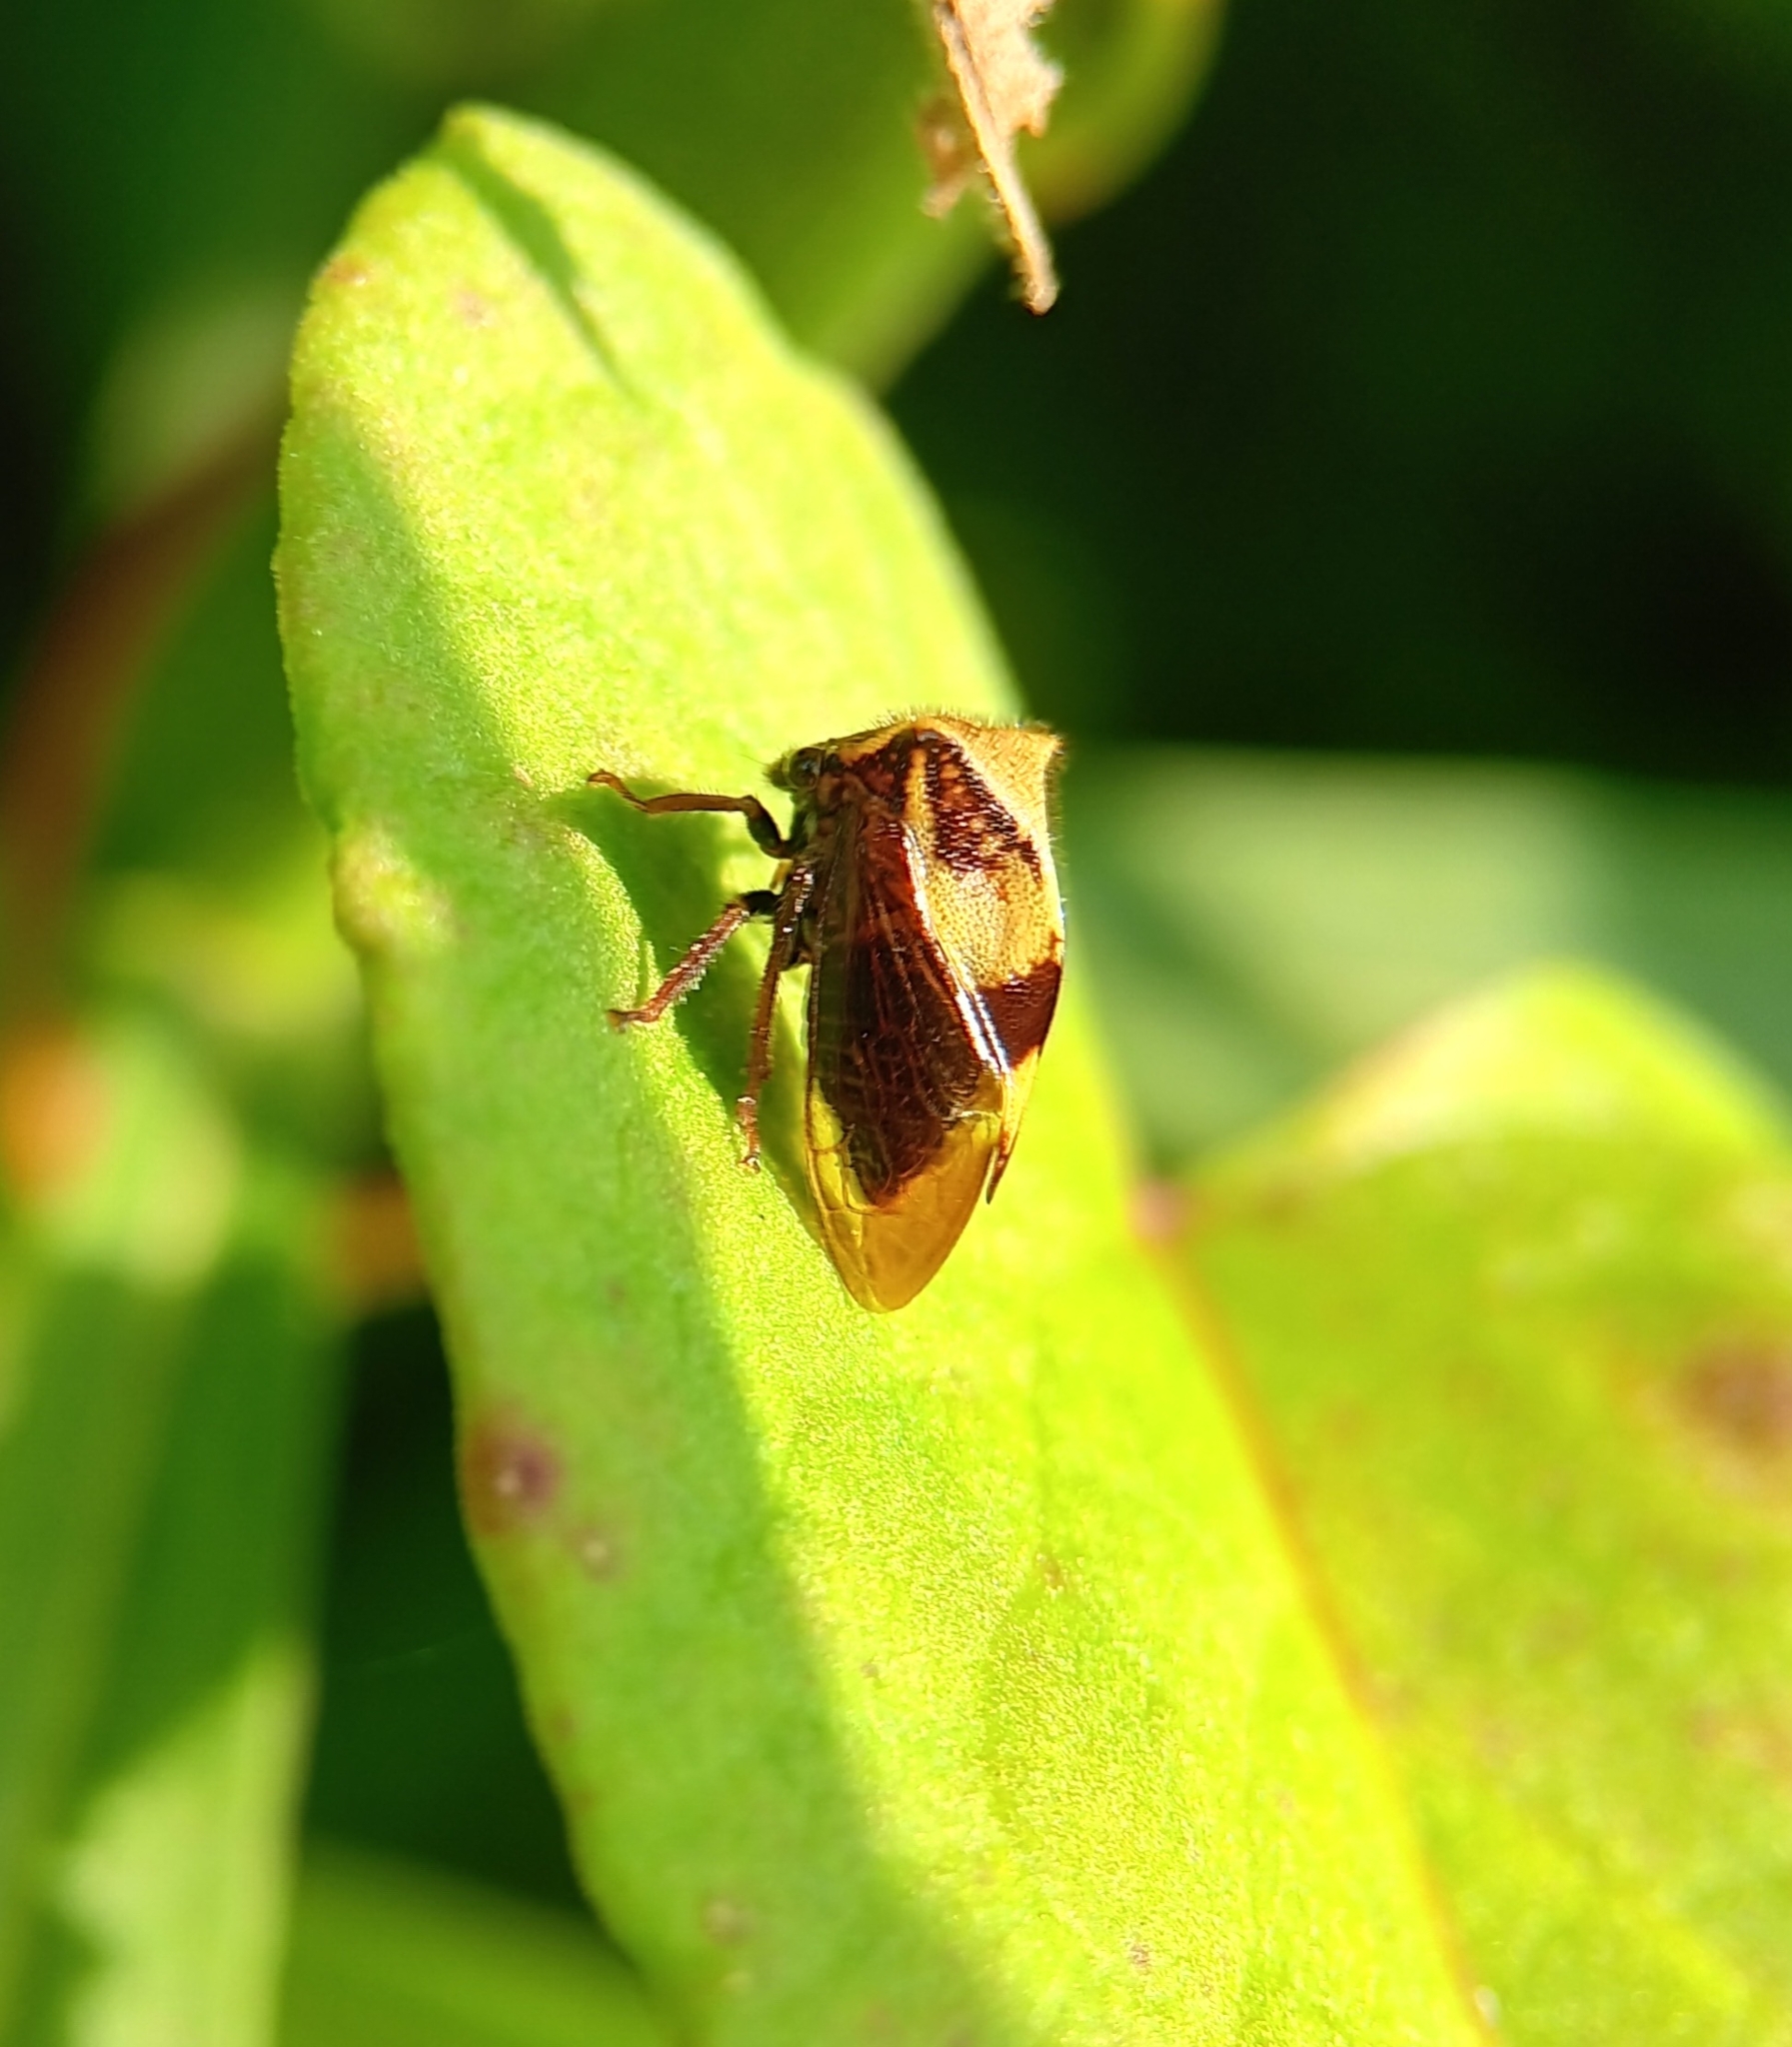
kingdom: Animalia
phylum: Arthropoda
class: Insecta
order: Hemiptera
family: Membracidae
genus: Stictocephala
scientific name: Stictocephala diceros
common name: Two-horned treehopper
